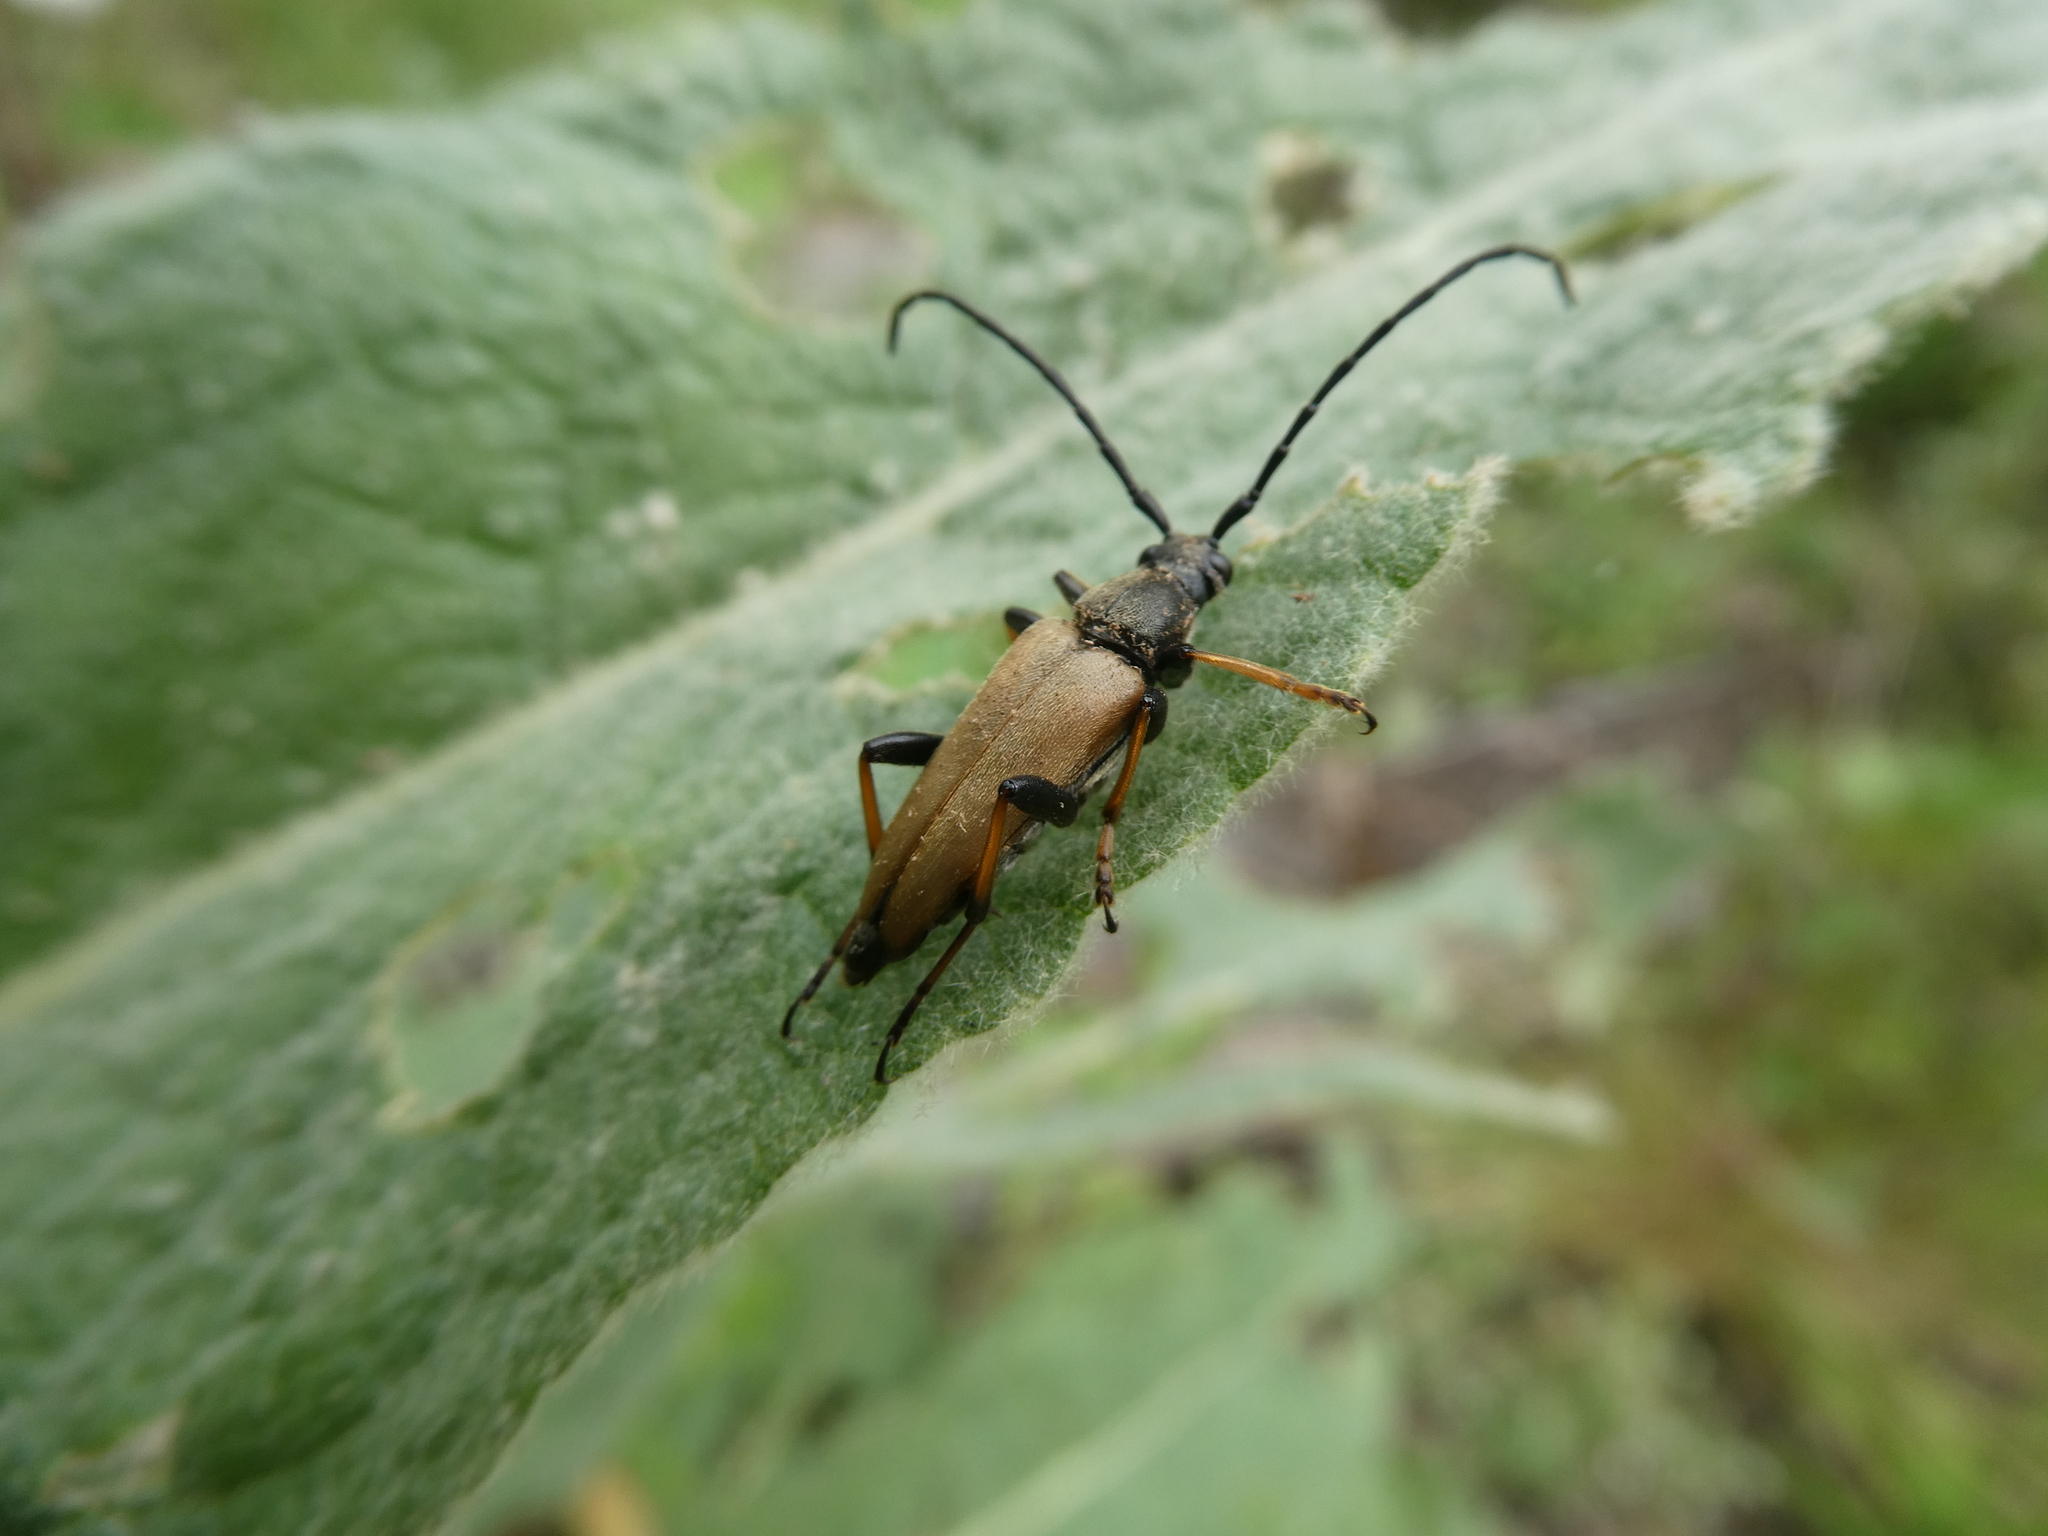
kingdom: Animalia
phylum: Arthropoda
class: Insecta
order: Coleoptera
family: Cerambycidae
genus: Stictoleptura
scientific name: Stictoleptura rubra
